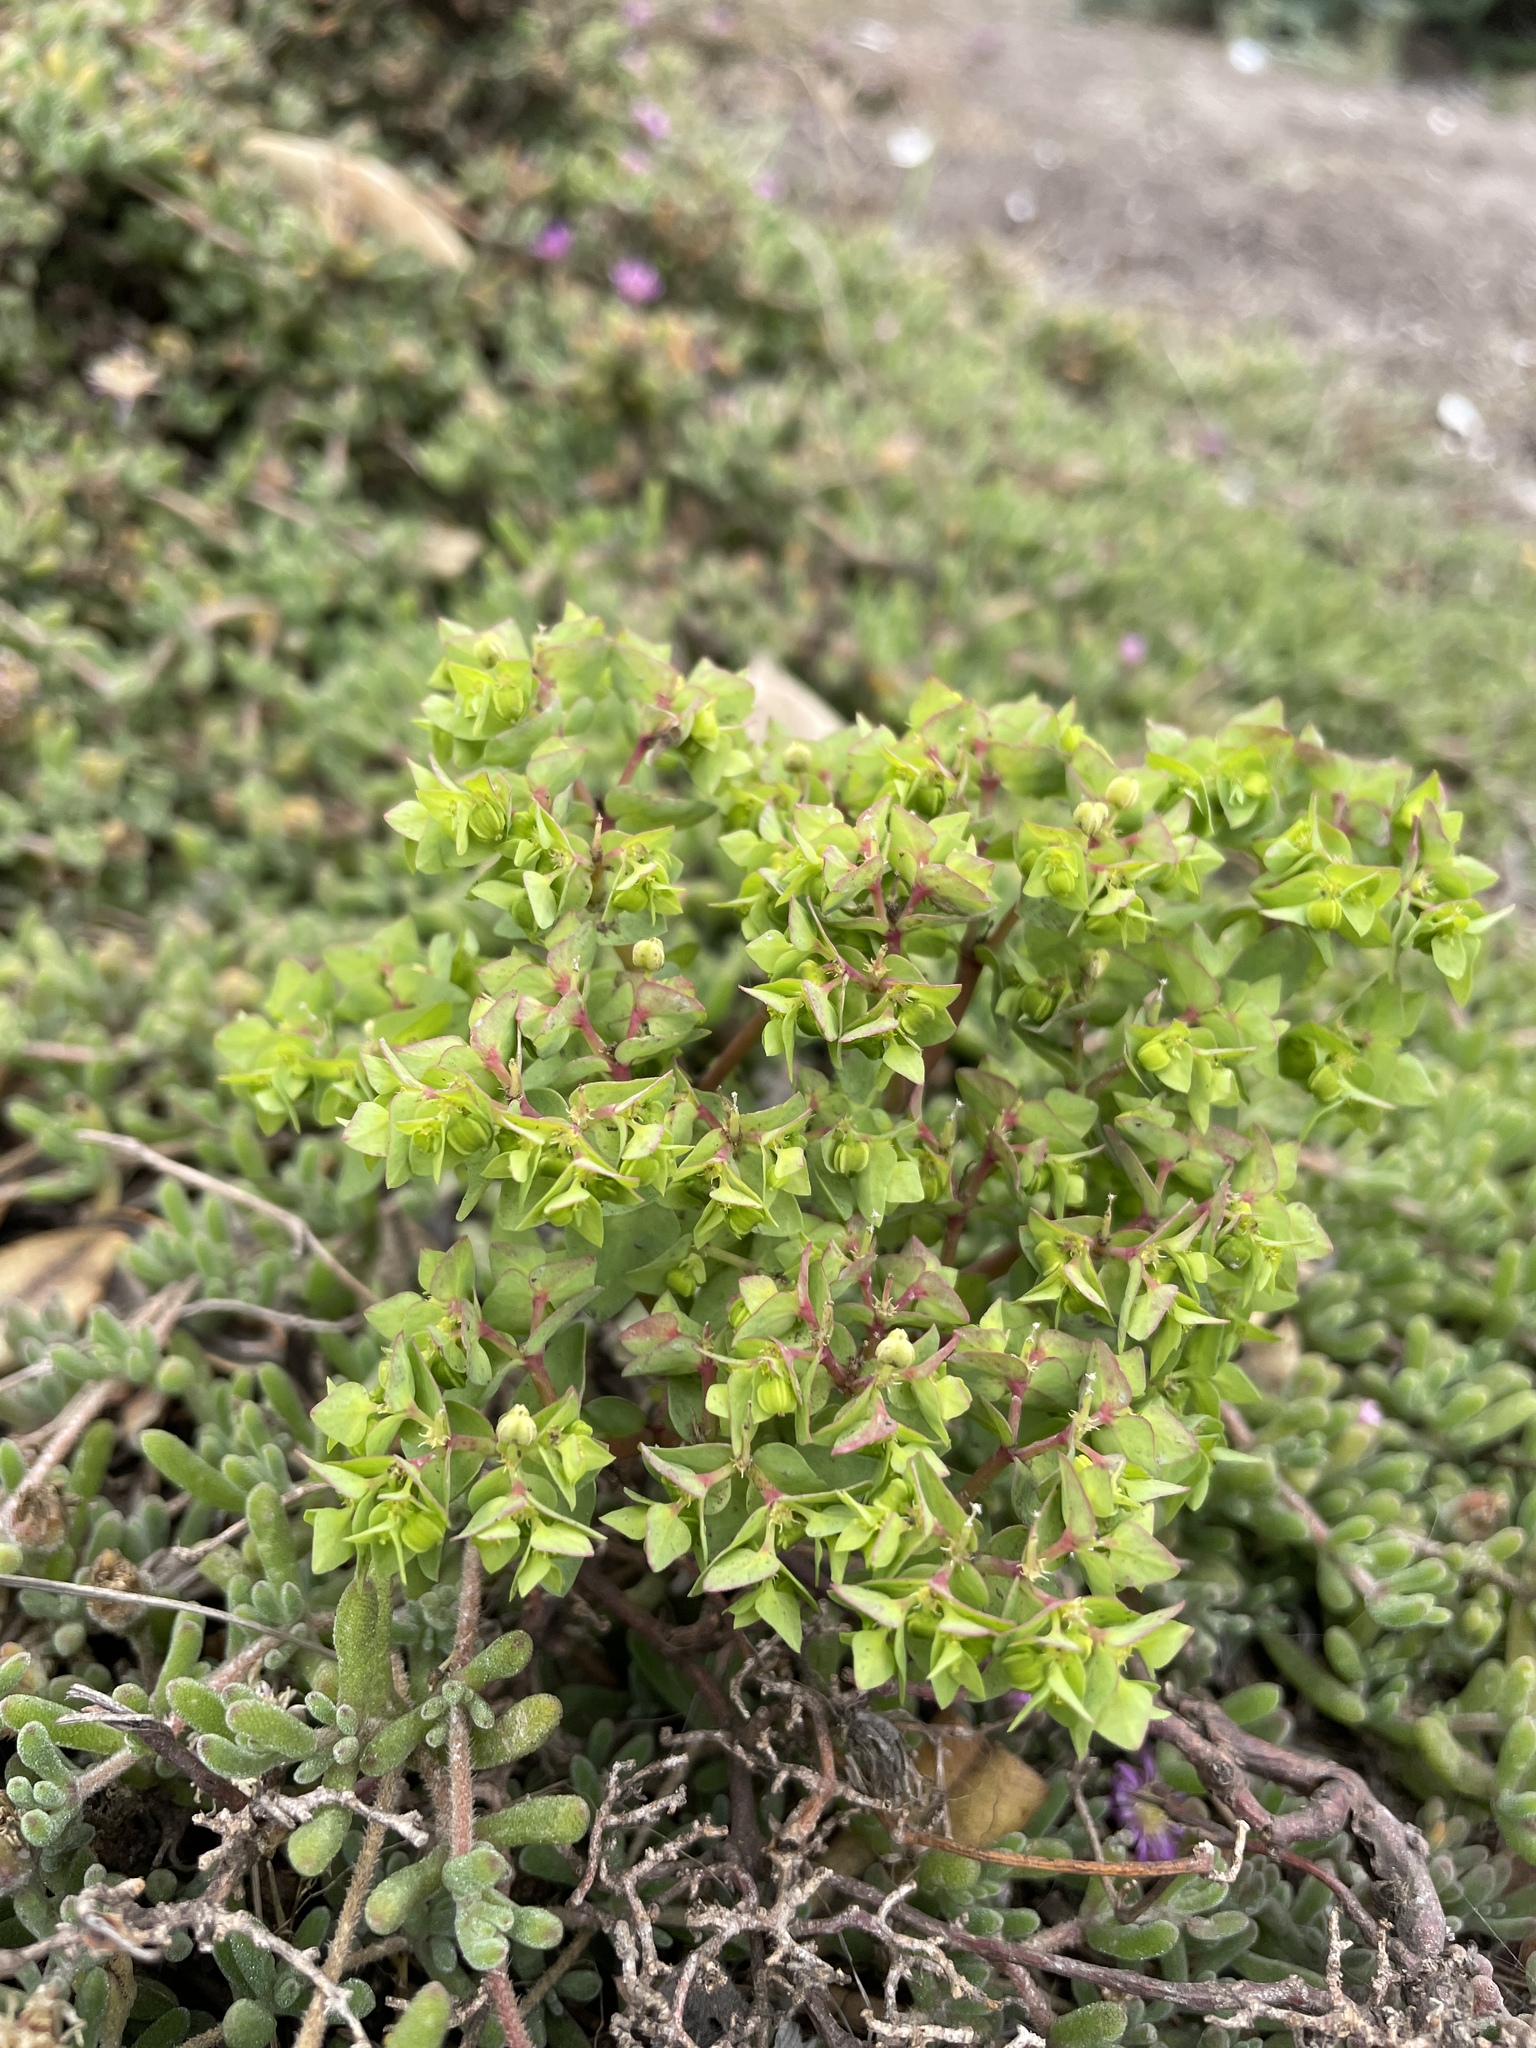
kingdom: Plantae
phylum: Tracheophyta
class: Magnoliopsida
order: Malpighiales
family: Euphorbiaceae
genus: Euphorbia
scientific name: Euphorbia peplus
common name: Petty spurge
